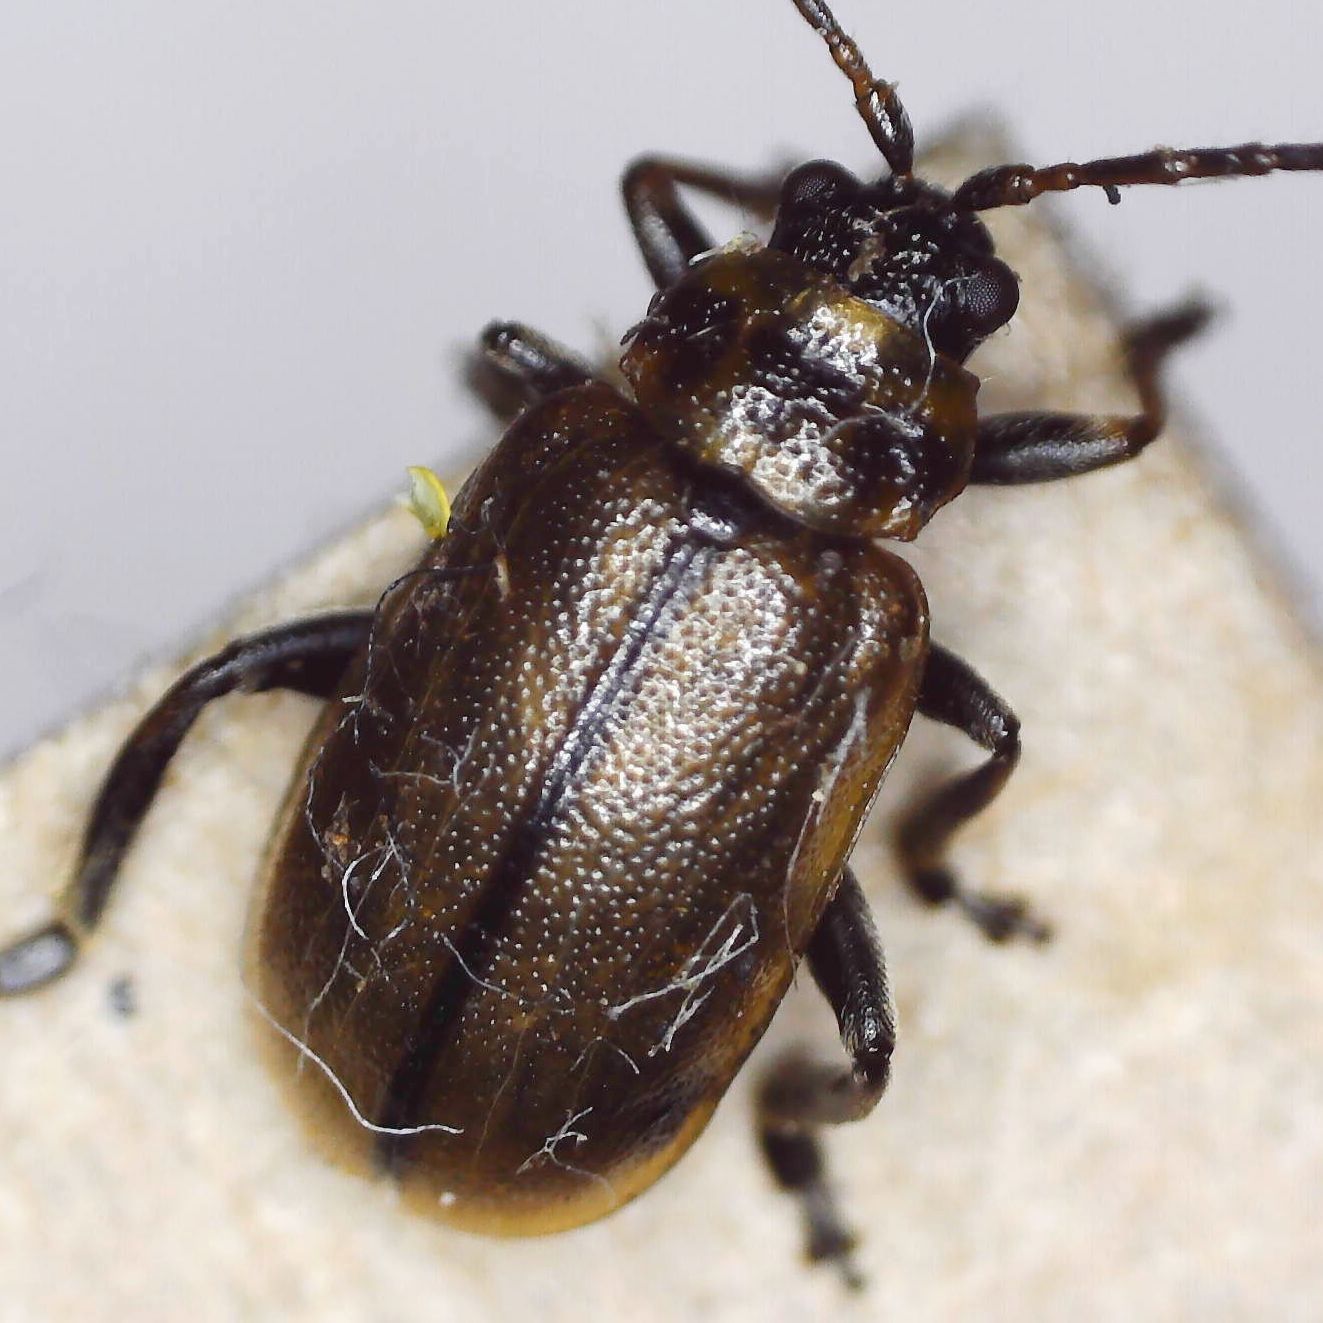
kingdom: Animalia
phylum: Arthropoda
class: Insecta
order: Coleoptera
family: Chrysomelidae
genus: Lochmaea
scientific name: Lochmaea suturalis
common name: Heather beetle
